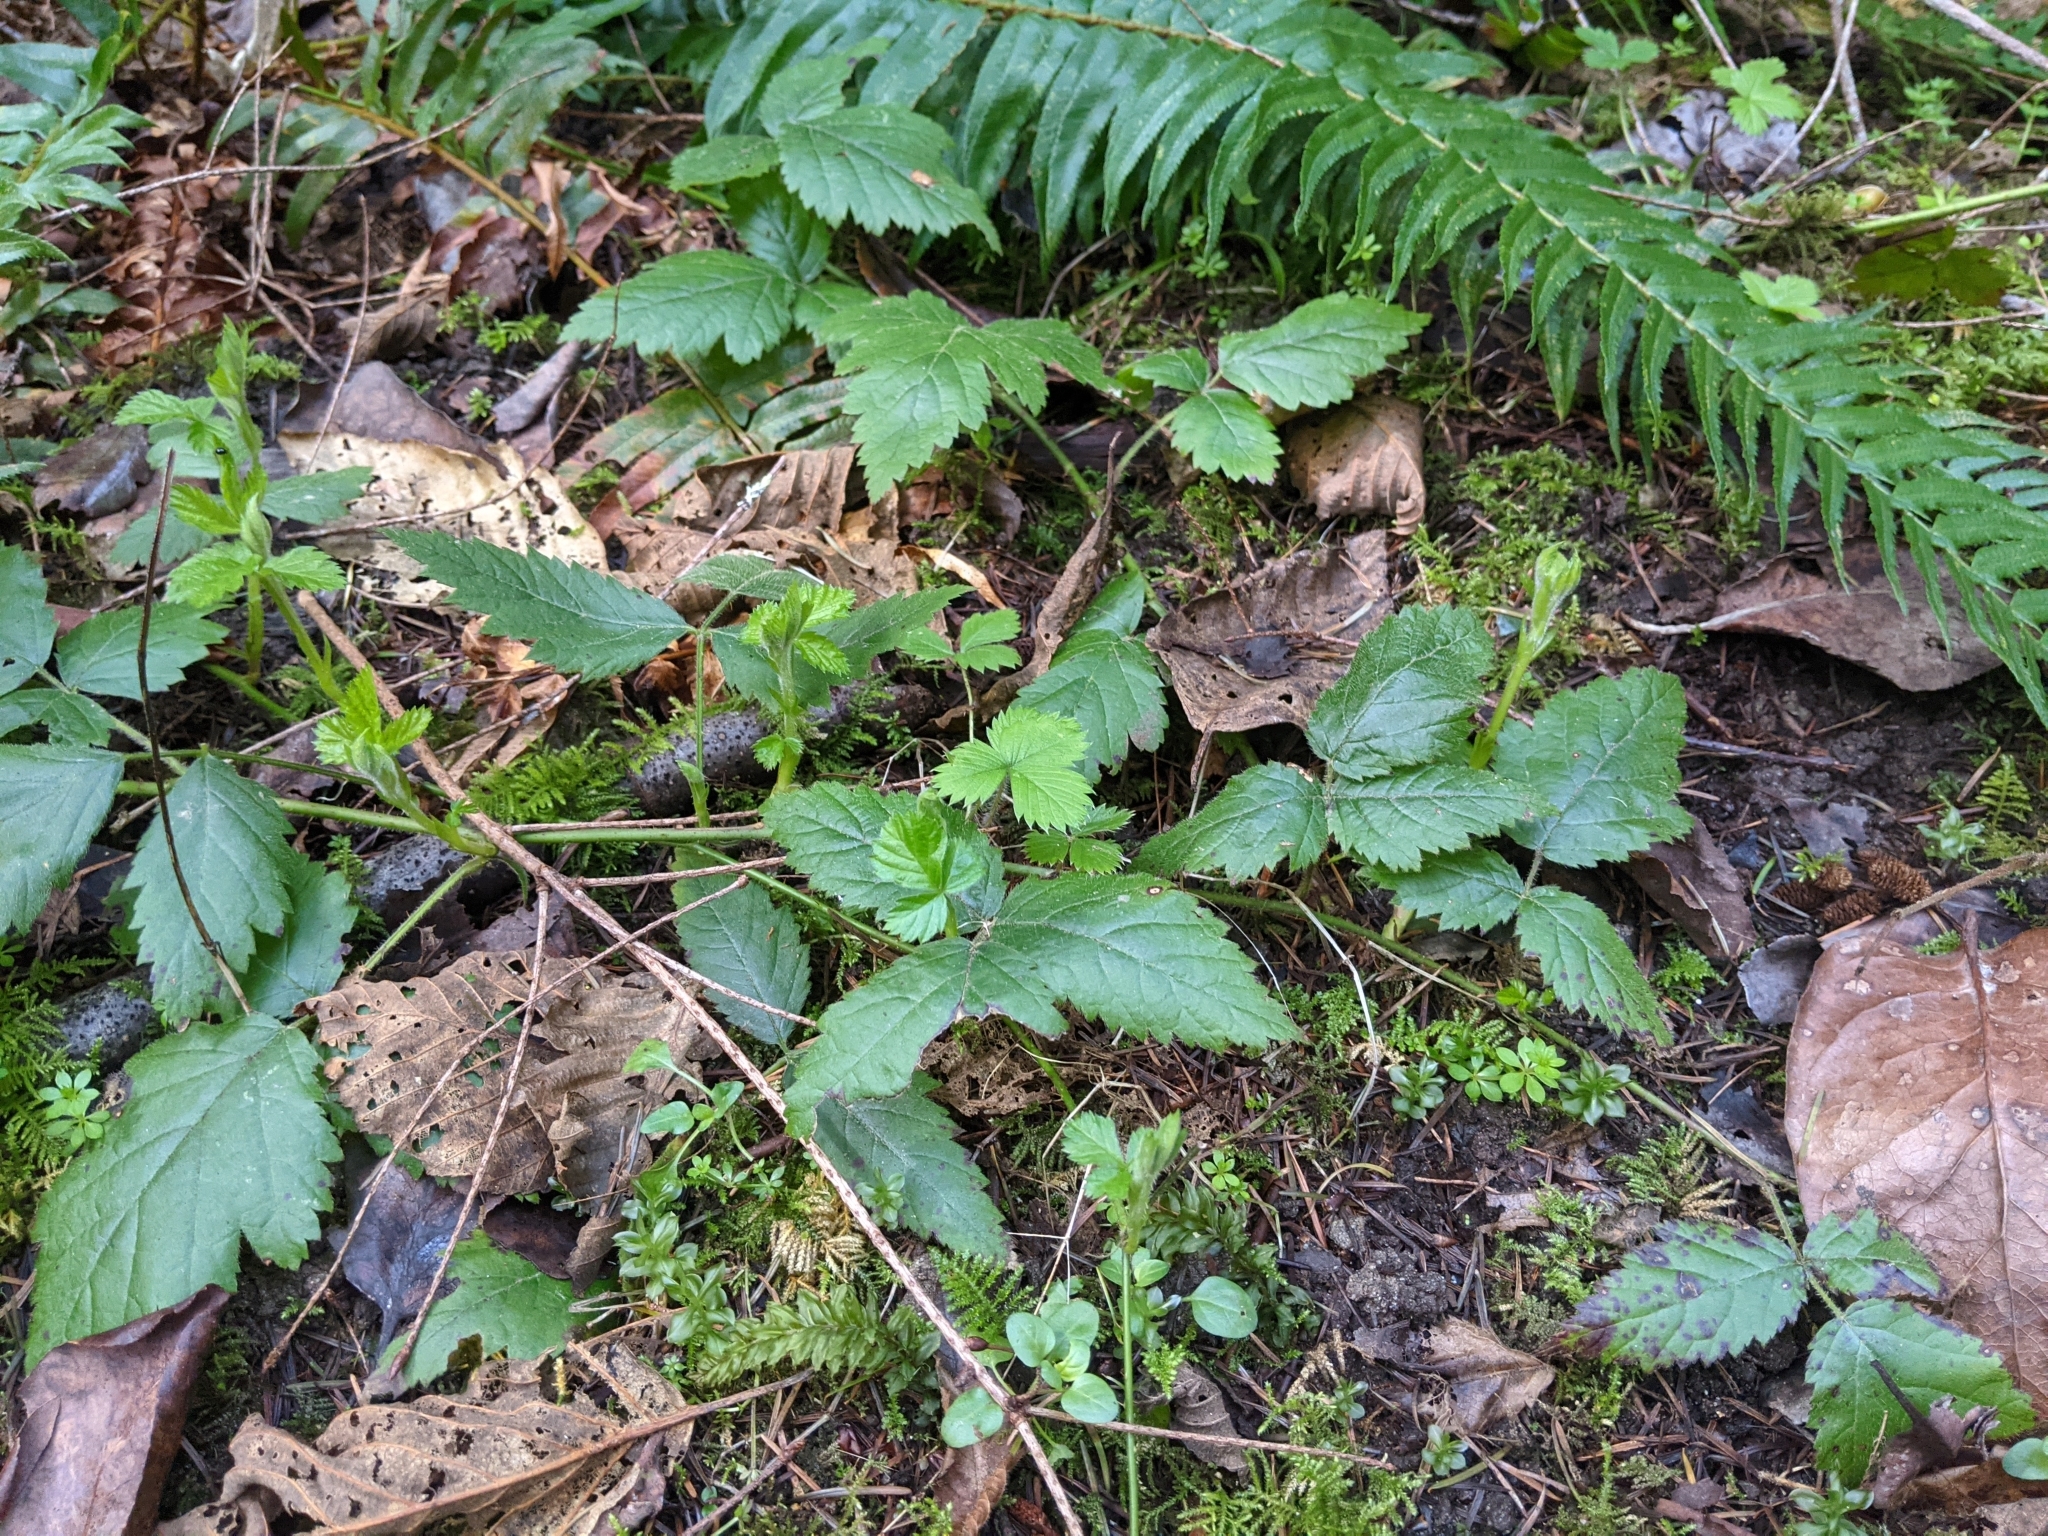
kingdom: Plantae
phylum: Tracheophyta
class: Magnoliopsida
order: Rosales
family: Rosaceae
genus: Rubus
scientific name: Rubus ursinus
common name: Pacific blackberry
